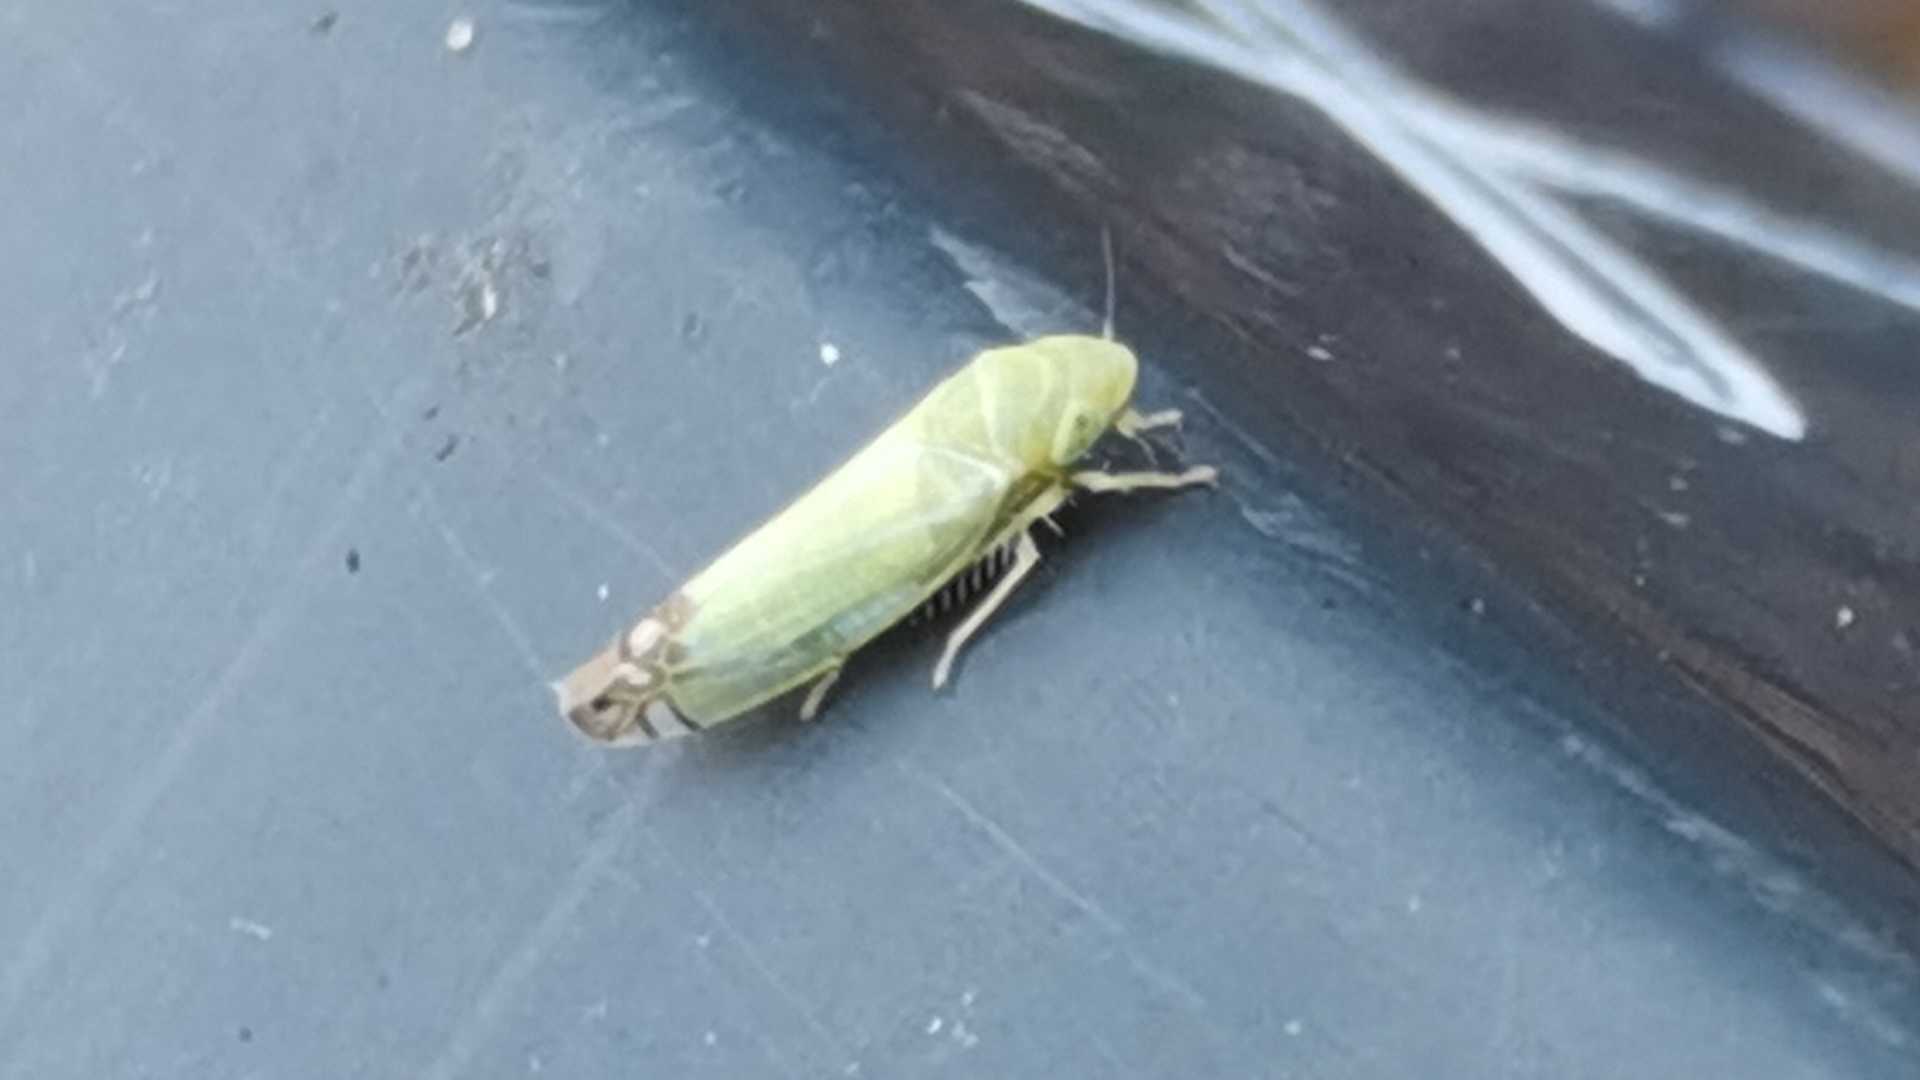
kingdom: Animalia
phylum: Arthropoda
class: Insecta
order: Hemiptera
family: Cicadellidae
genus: Zyginella
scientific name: Zyginella pulchra
